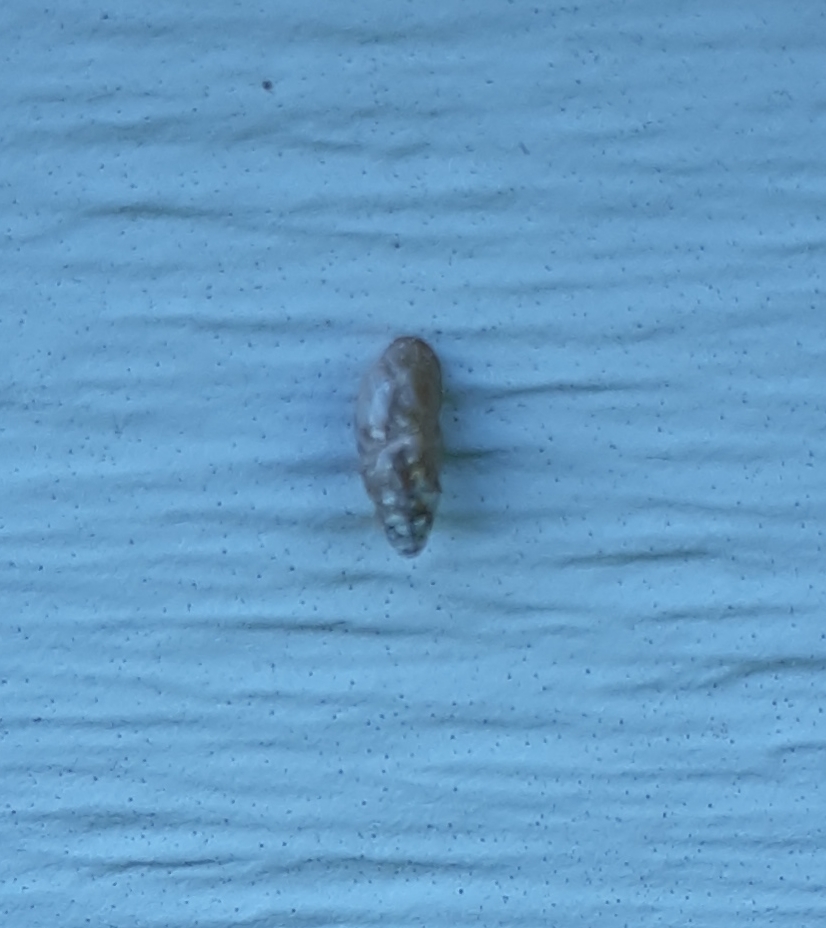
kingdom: Animalia
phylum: Mollusca
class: Gastropoda
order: Stylommatophora
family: Cochlicopidae
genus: Cochlicopa
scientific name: Cochlicopa lubrica
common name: Glossy pillar snail
